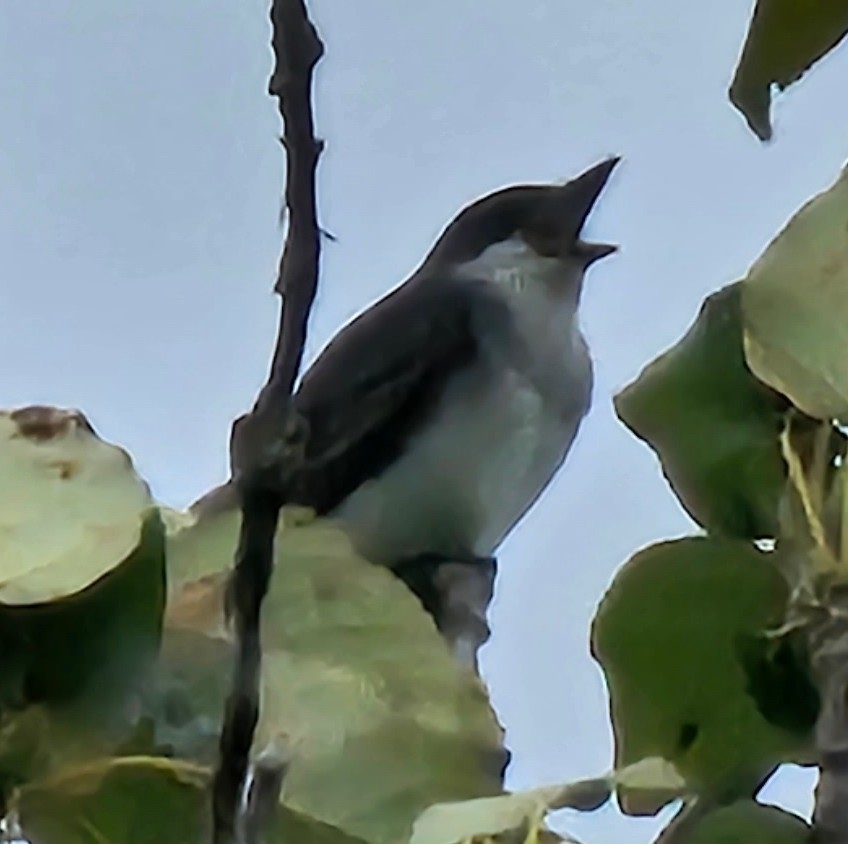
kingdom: Animalia
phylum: Chordata
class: Aves
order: Passeriformes
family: Tyrannidae
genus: Tyrannus
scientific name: Tyrannus tyrannus
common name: Eastern kingbird
